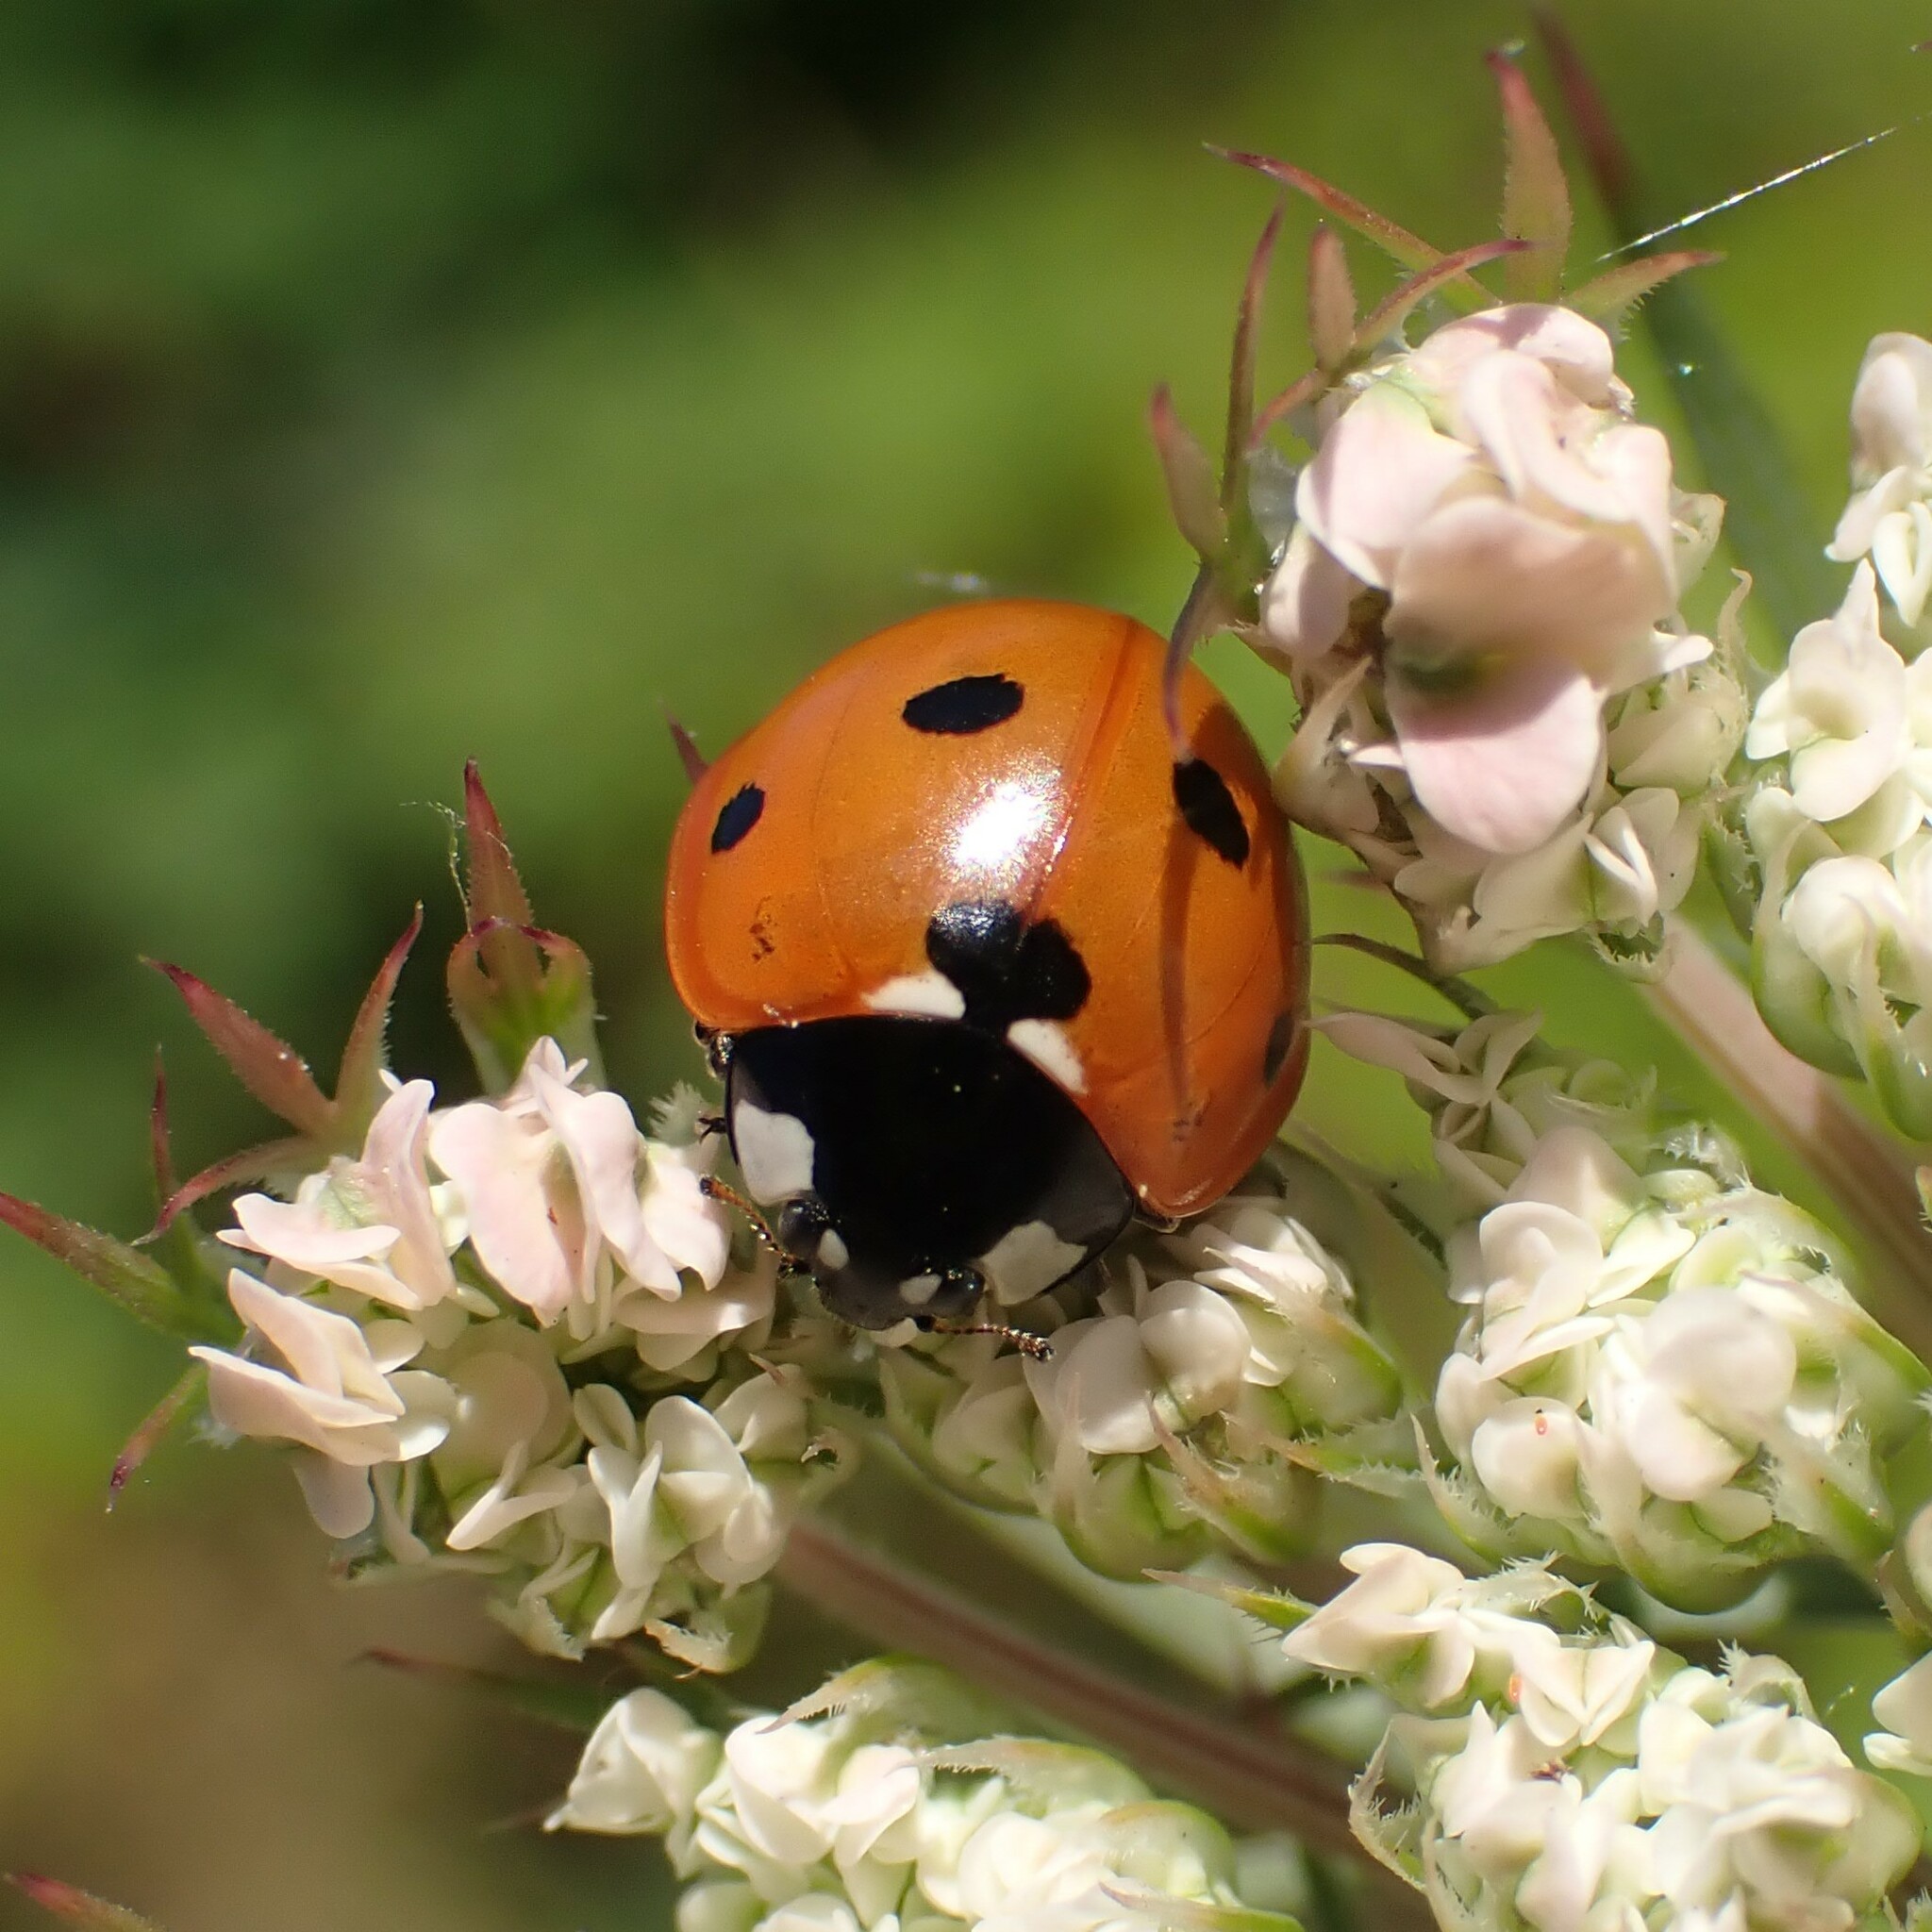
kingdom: Animalia
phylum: Arthropoda
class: Insecta
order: Coleoptera
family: Coccinellidae
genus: Coccinella
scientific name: Coccinella septempunctata
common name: Sevenspotted lady beetle
